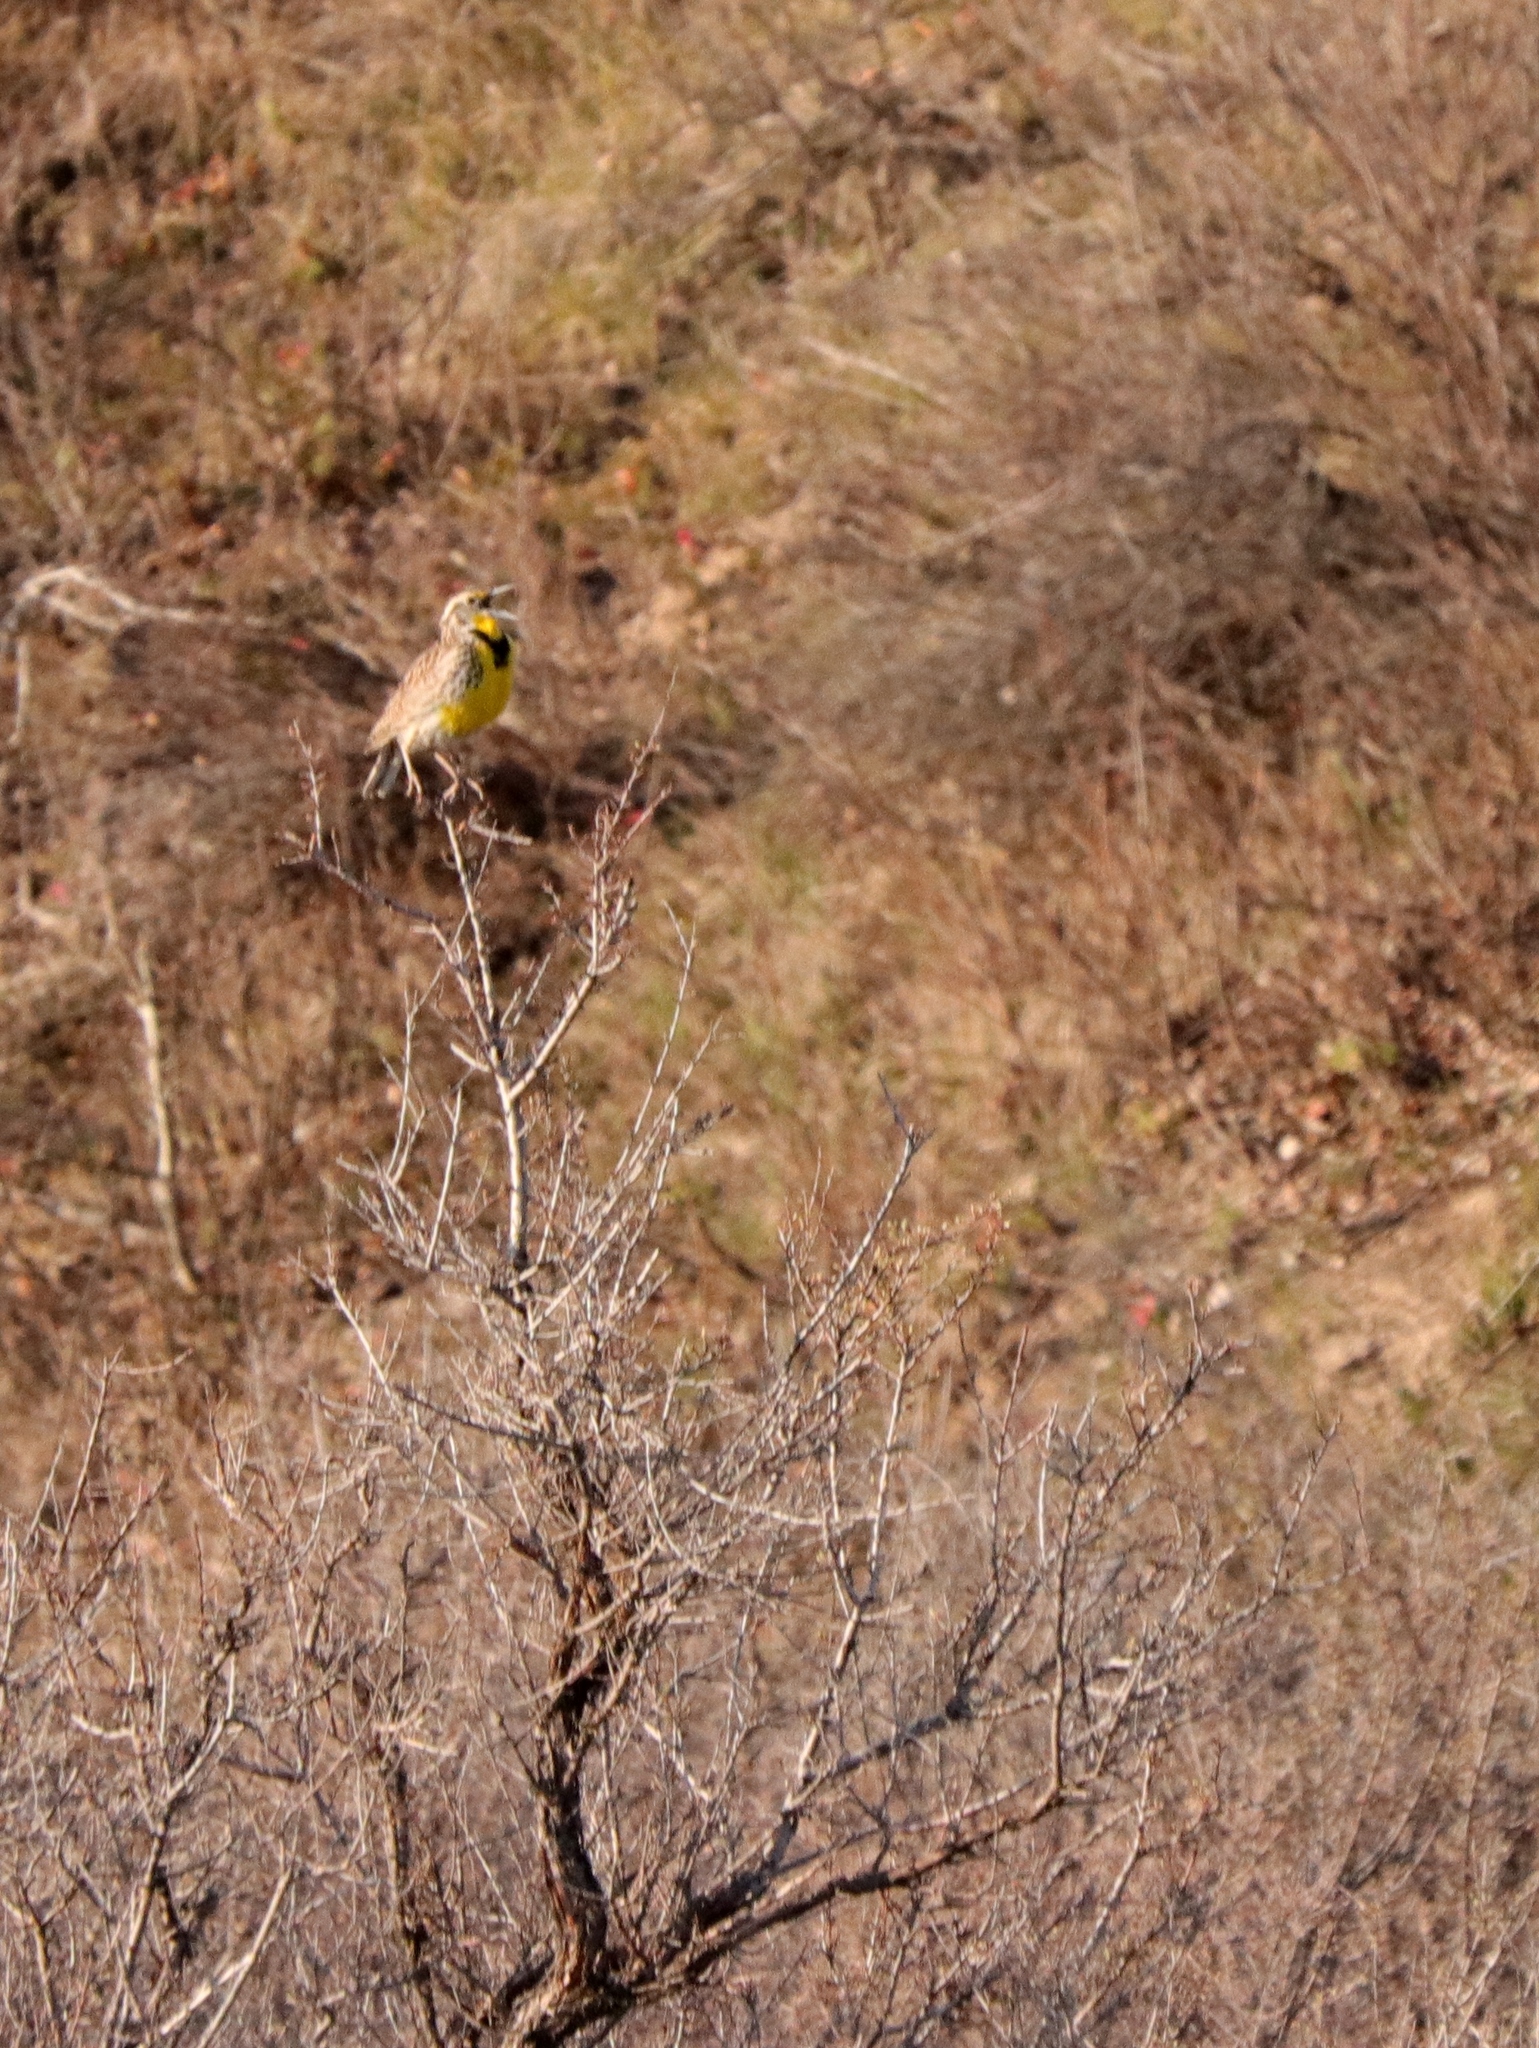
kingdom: Animalia
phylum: Chordata
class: Aves
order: Passeriformes
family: Icteridae
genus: Sturnella
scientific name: Sturnella neglecta
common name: Western meadowlark
